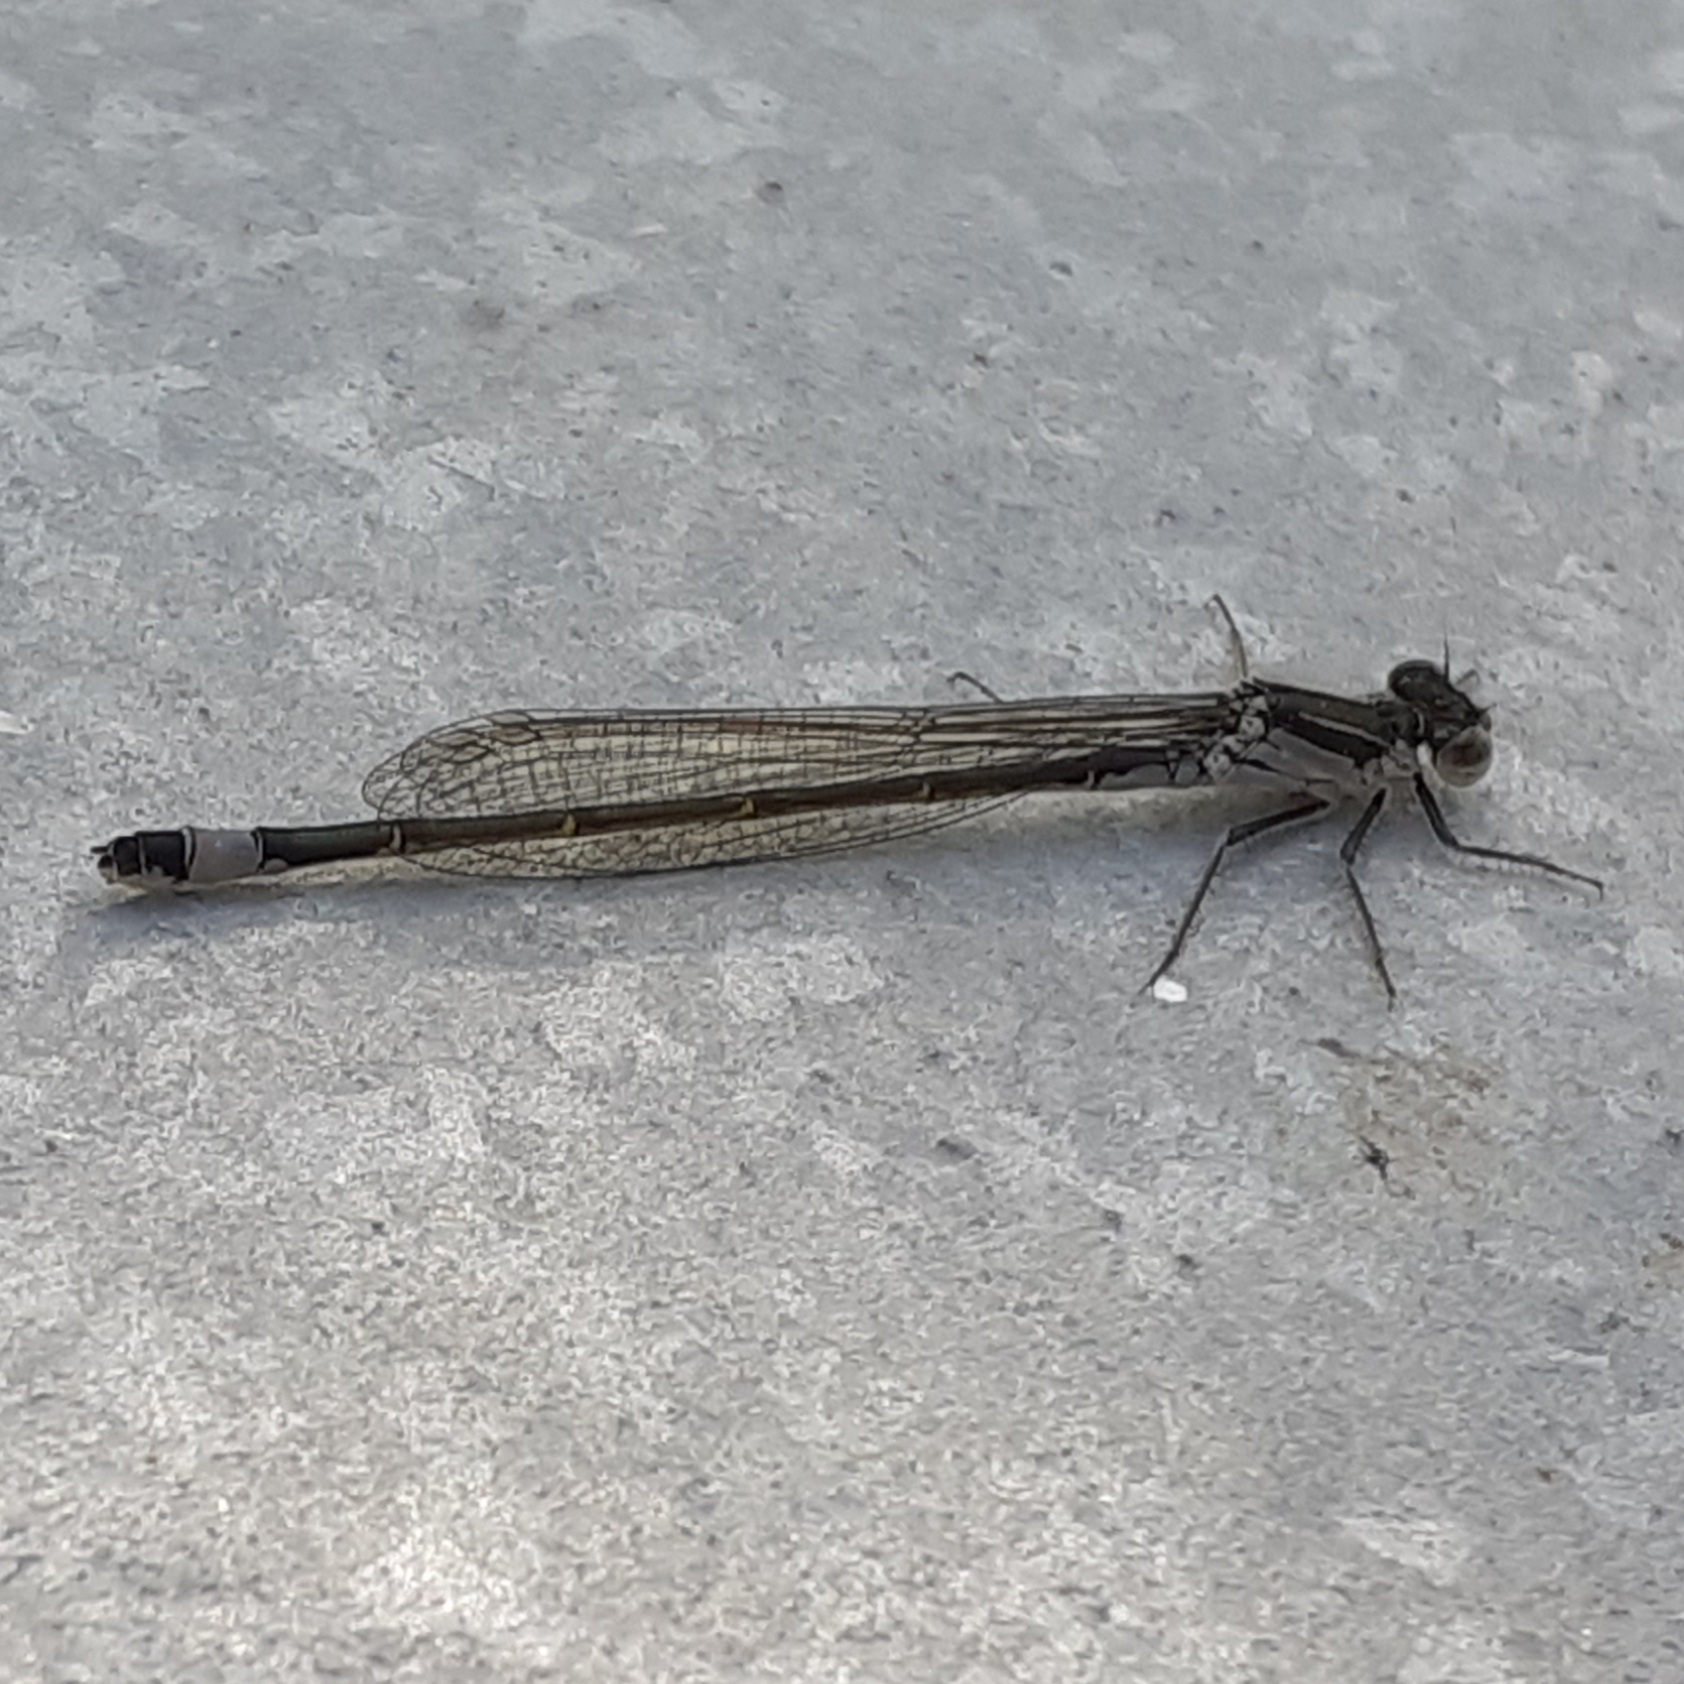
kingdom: Animalia
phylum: Arthropoda
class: Insecta
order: Odonata
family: Coenagrionidae
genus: Ischnura
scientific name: Ischnura elegans
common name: Blue-tailed damselfly
